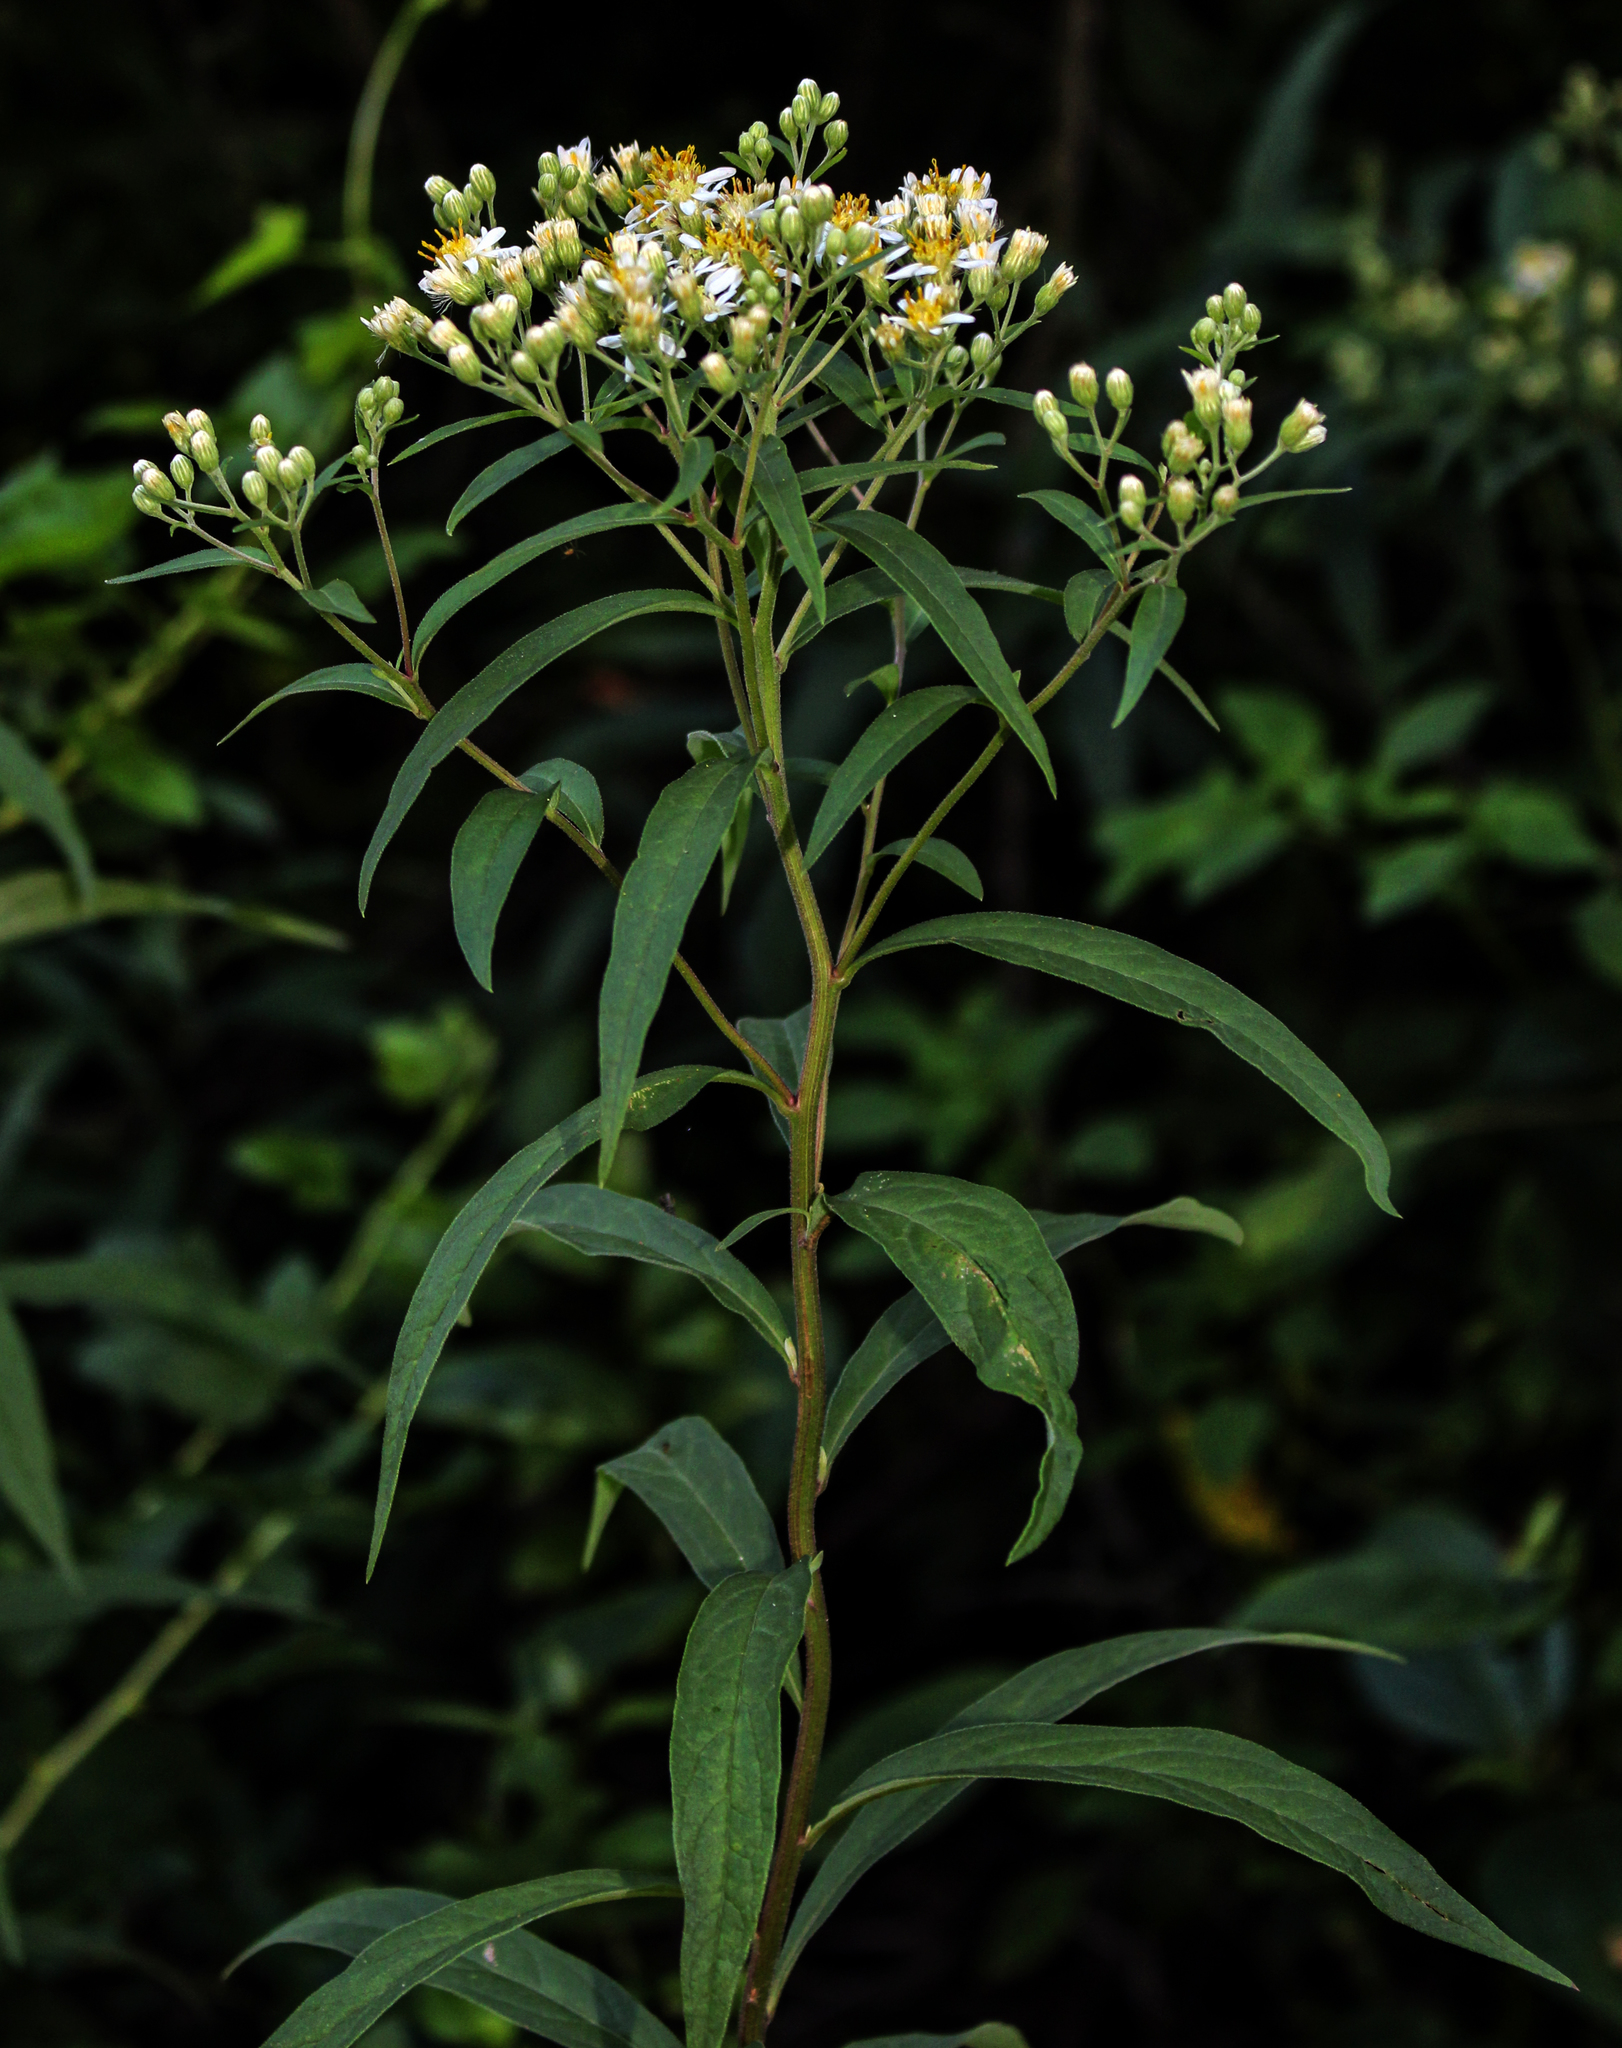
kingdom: Plantae
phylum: Tracheophyta
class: Magnoliopsida
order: Asterales
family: Asteraceae
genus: Doellingeria
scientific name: Doellingeria umbellata
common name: Flat-top white aster
